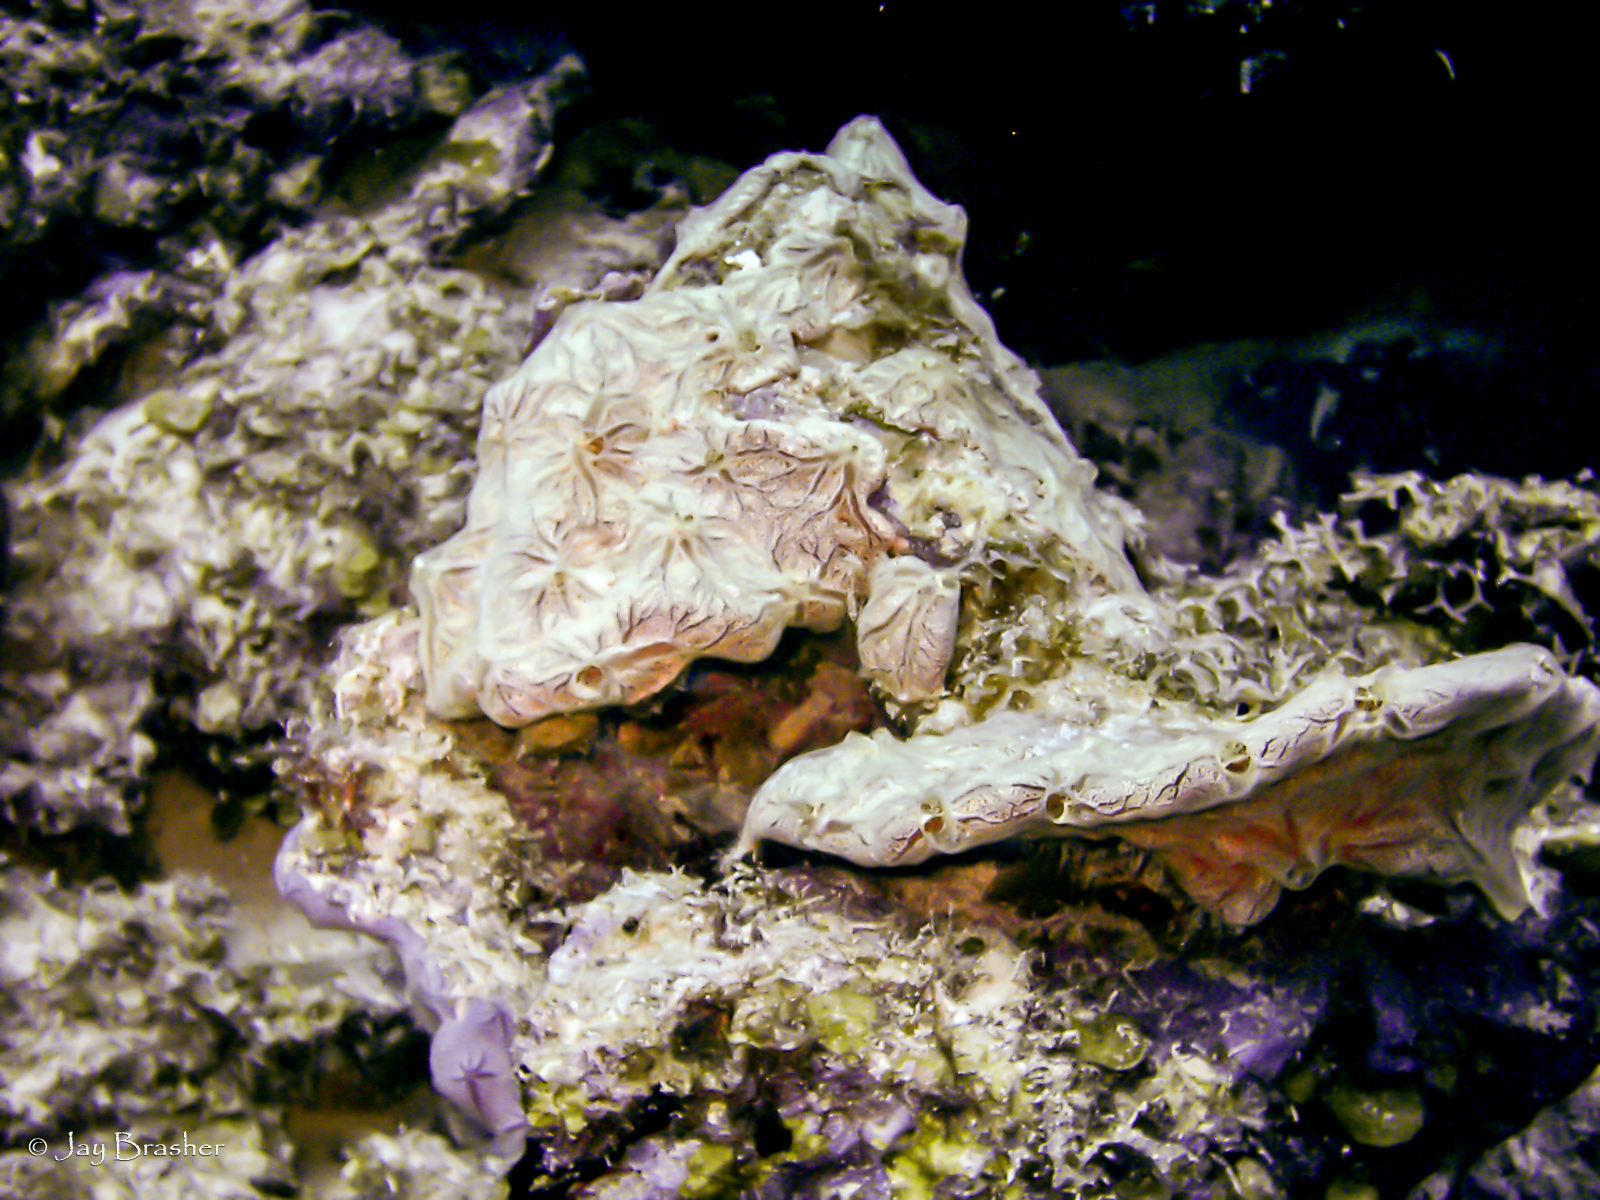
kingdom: Animalia
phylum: Porifera
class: Demospongiae
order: Poecilosclerida
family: Microcionidae
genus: Clathria
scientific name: Clathria curacaoensis
